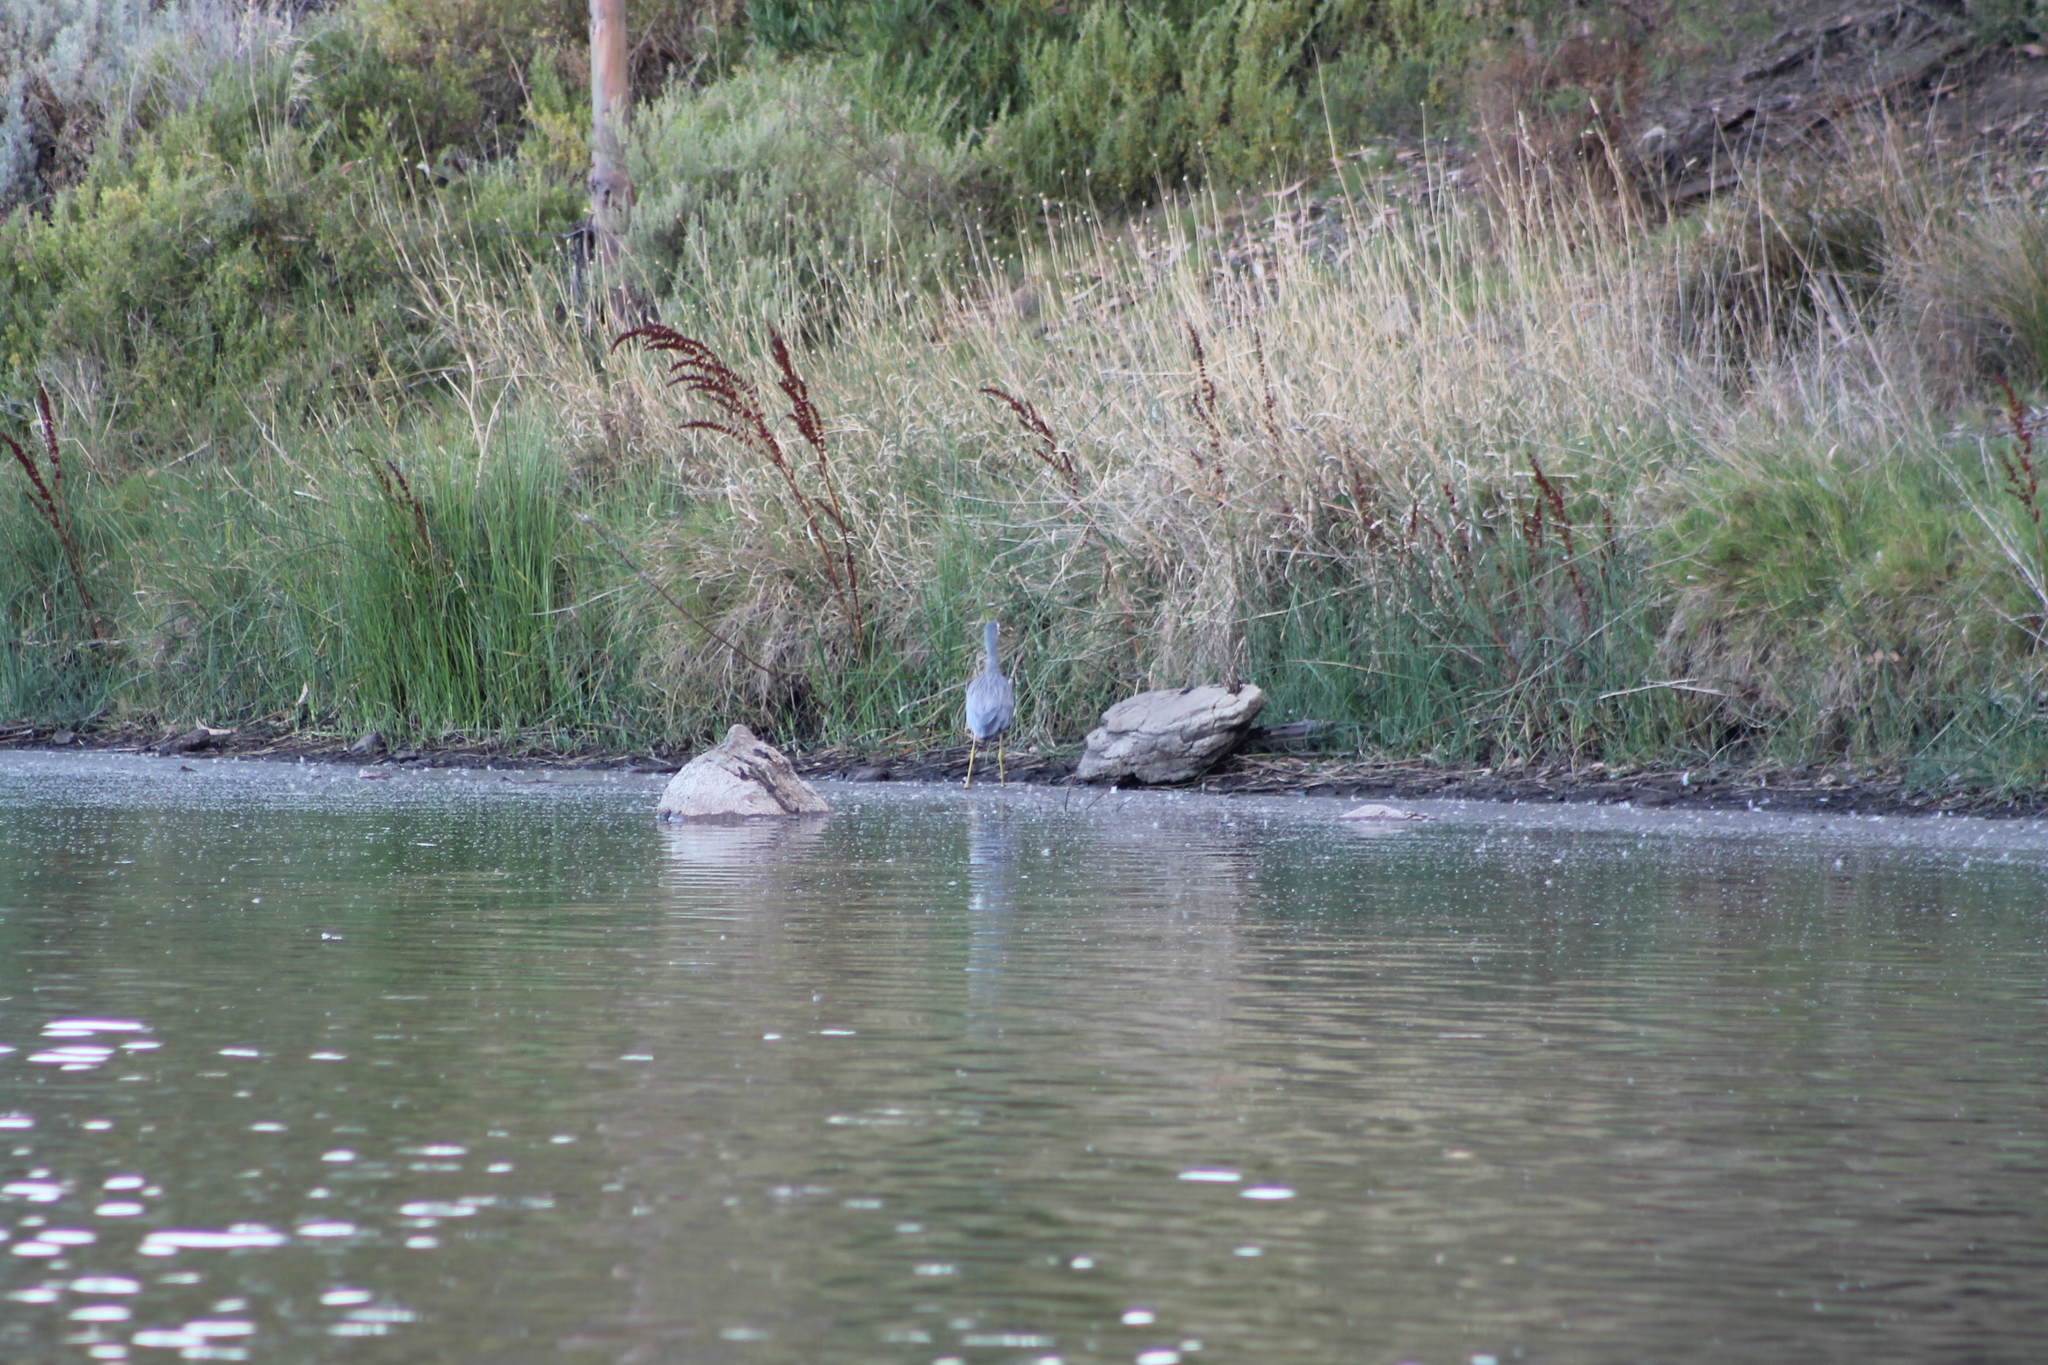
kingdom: Animalia
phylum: Chordata
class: Aves
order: Pelecaniformes
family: Ardeidae
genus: Egretta
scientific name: Egretta novaehollandiae
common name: White-faced heron
